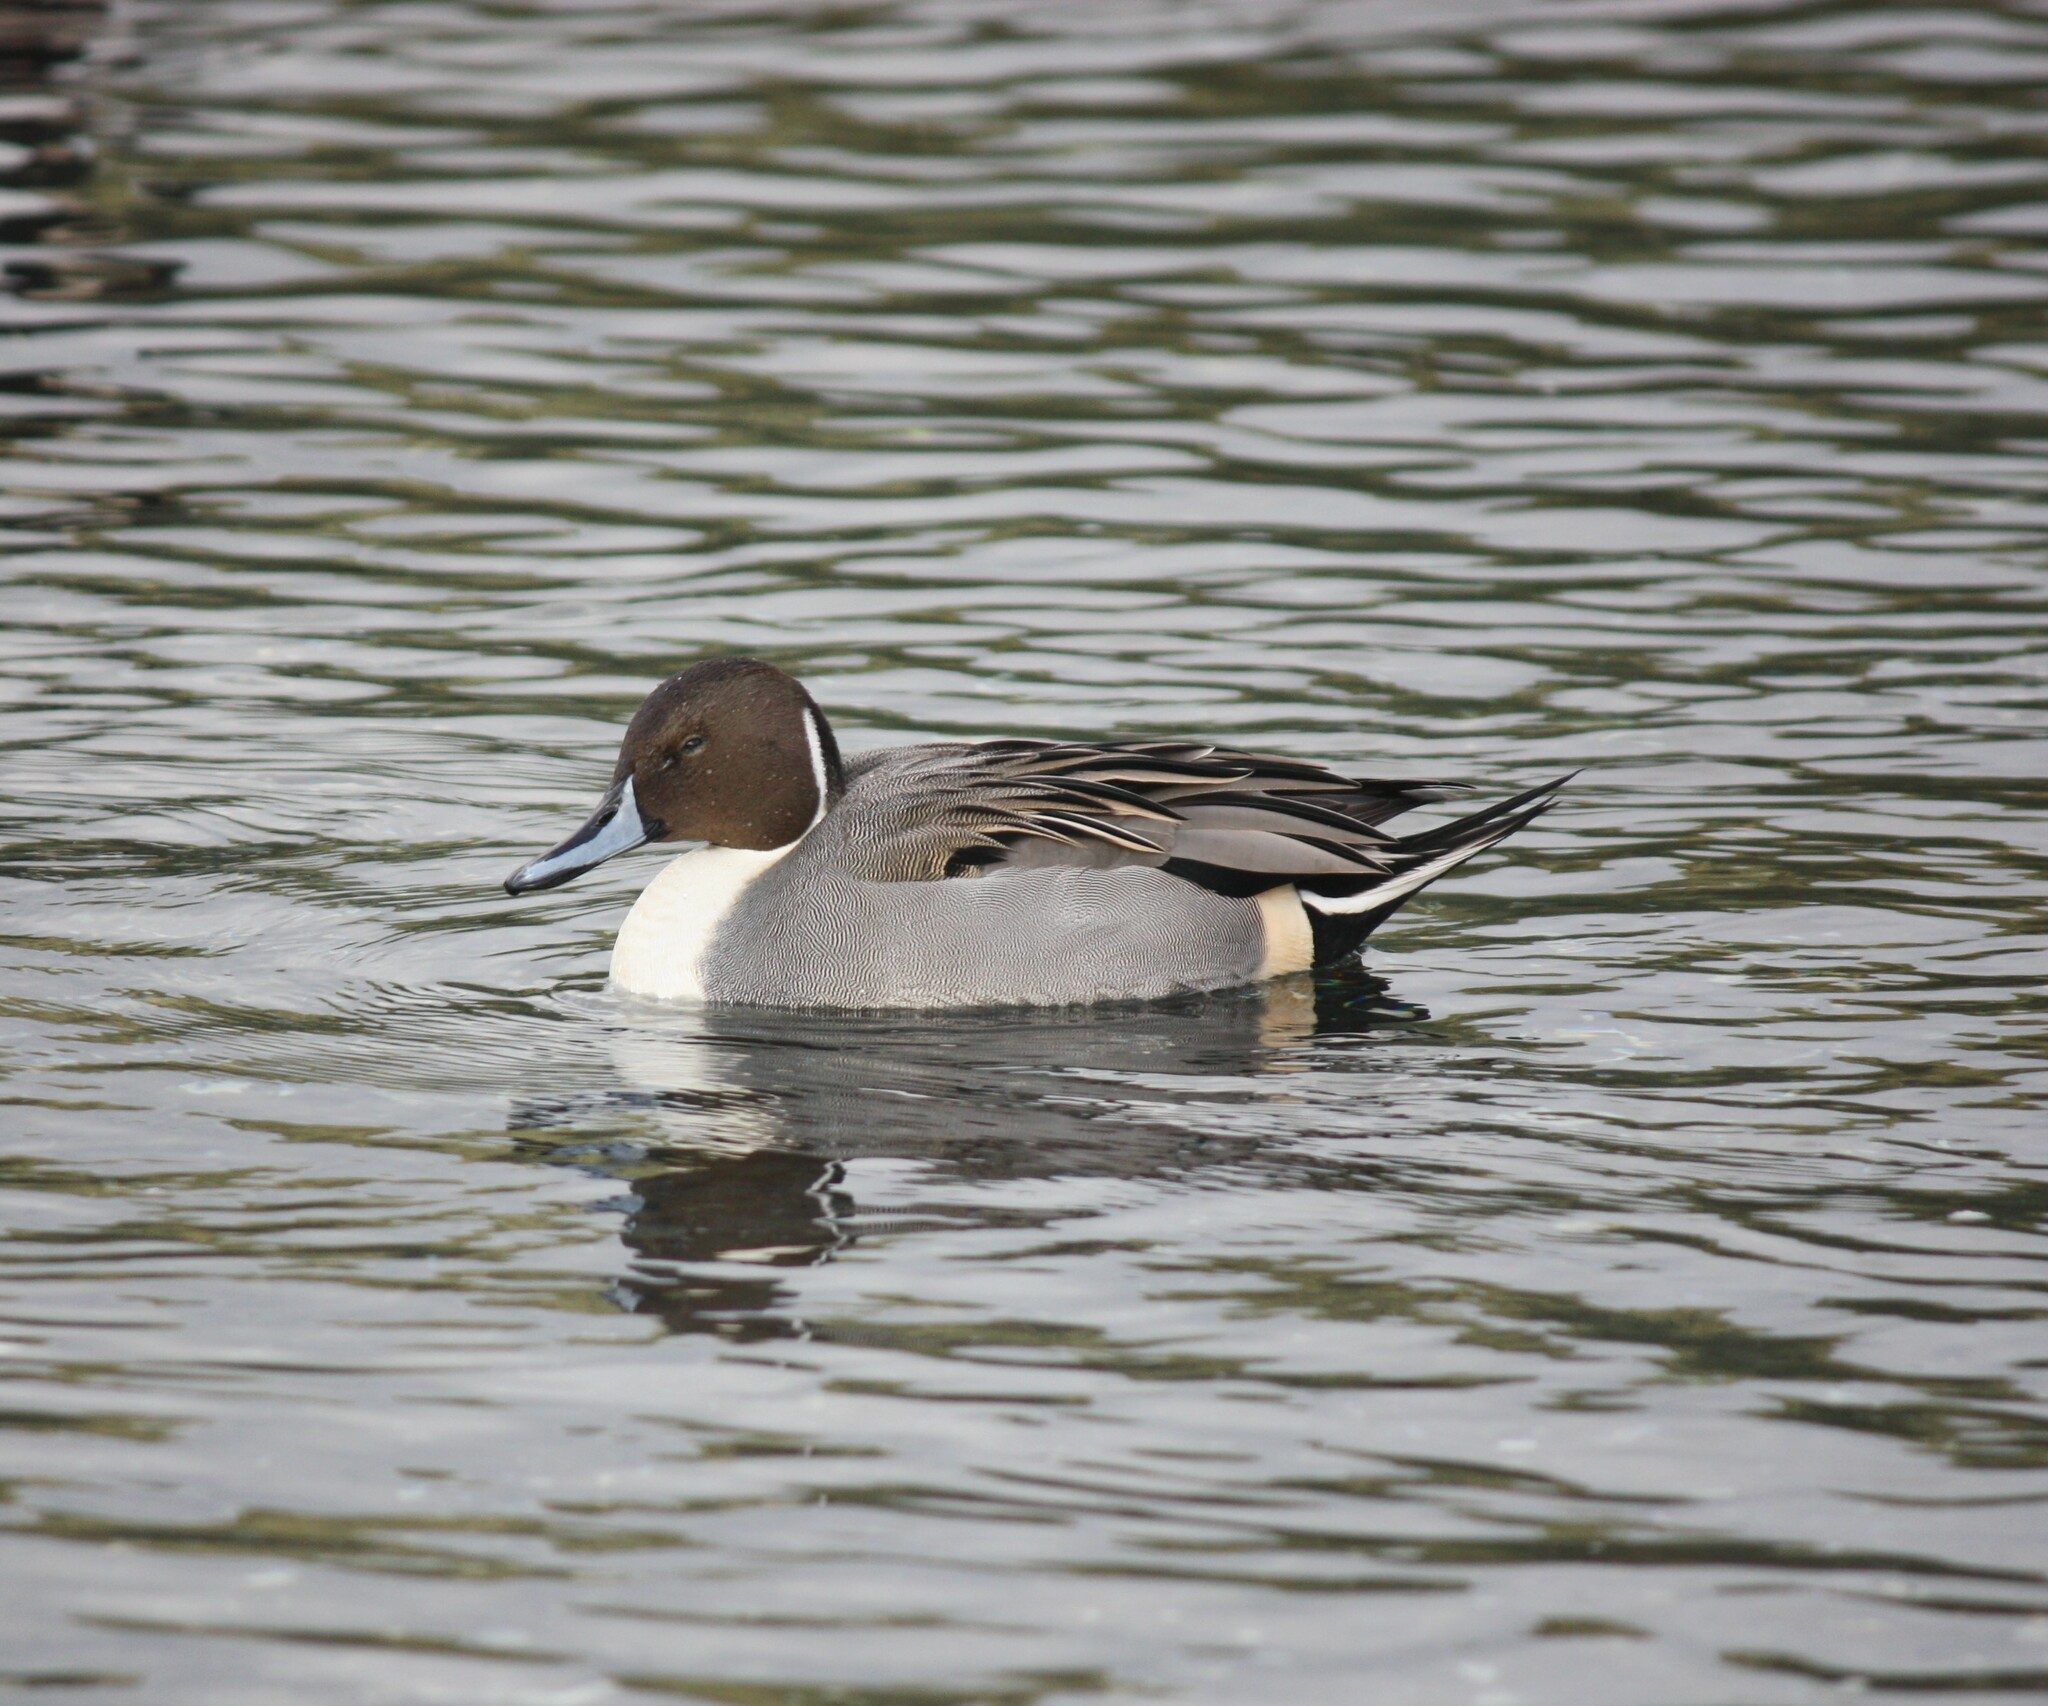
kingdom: Animalia
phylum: Chordata
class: Aves
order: Anseriformes
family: Anatidae
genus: Anas
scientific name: Anas acuta
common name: Northern pintail
